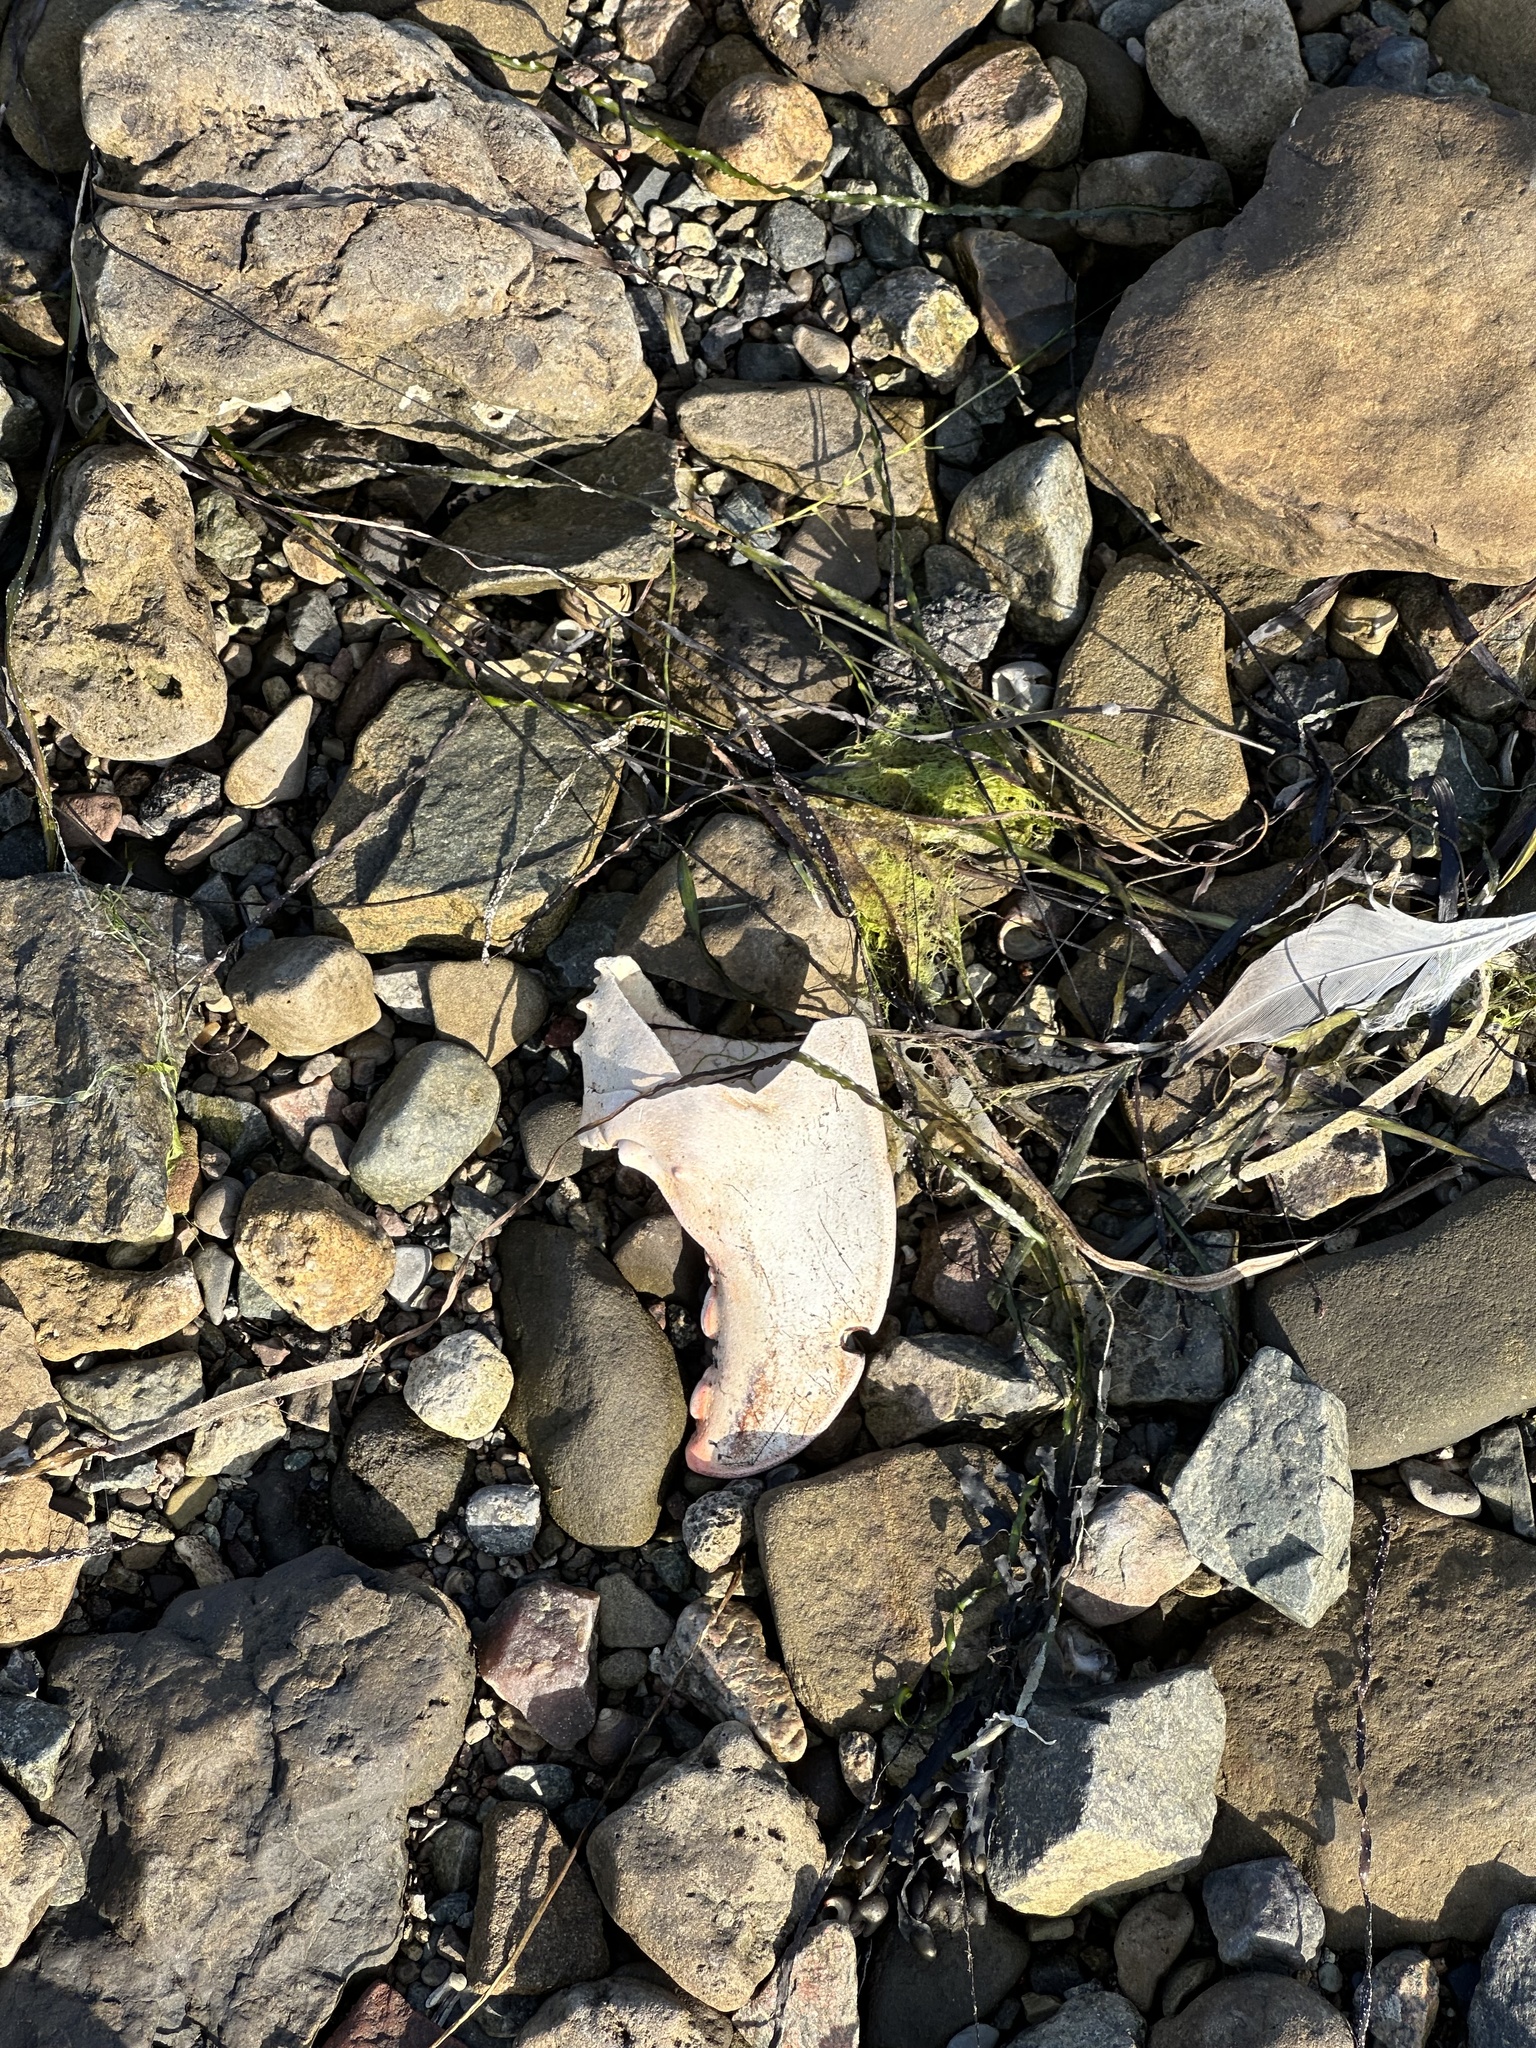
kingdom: Animalia
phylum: Arthropoda
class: Malacostraca
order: Decapoda
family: Nephropidae
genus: Homarus
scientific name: Homarus americanus
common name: American lobster
